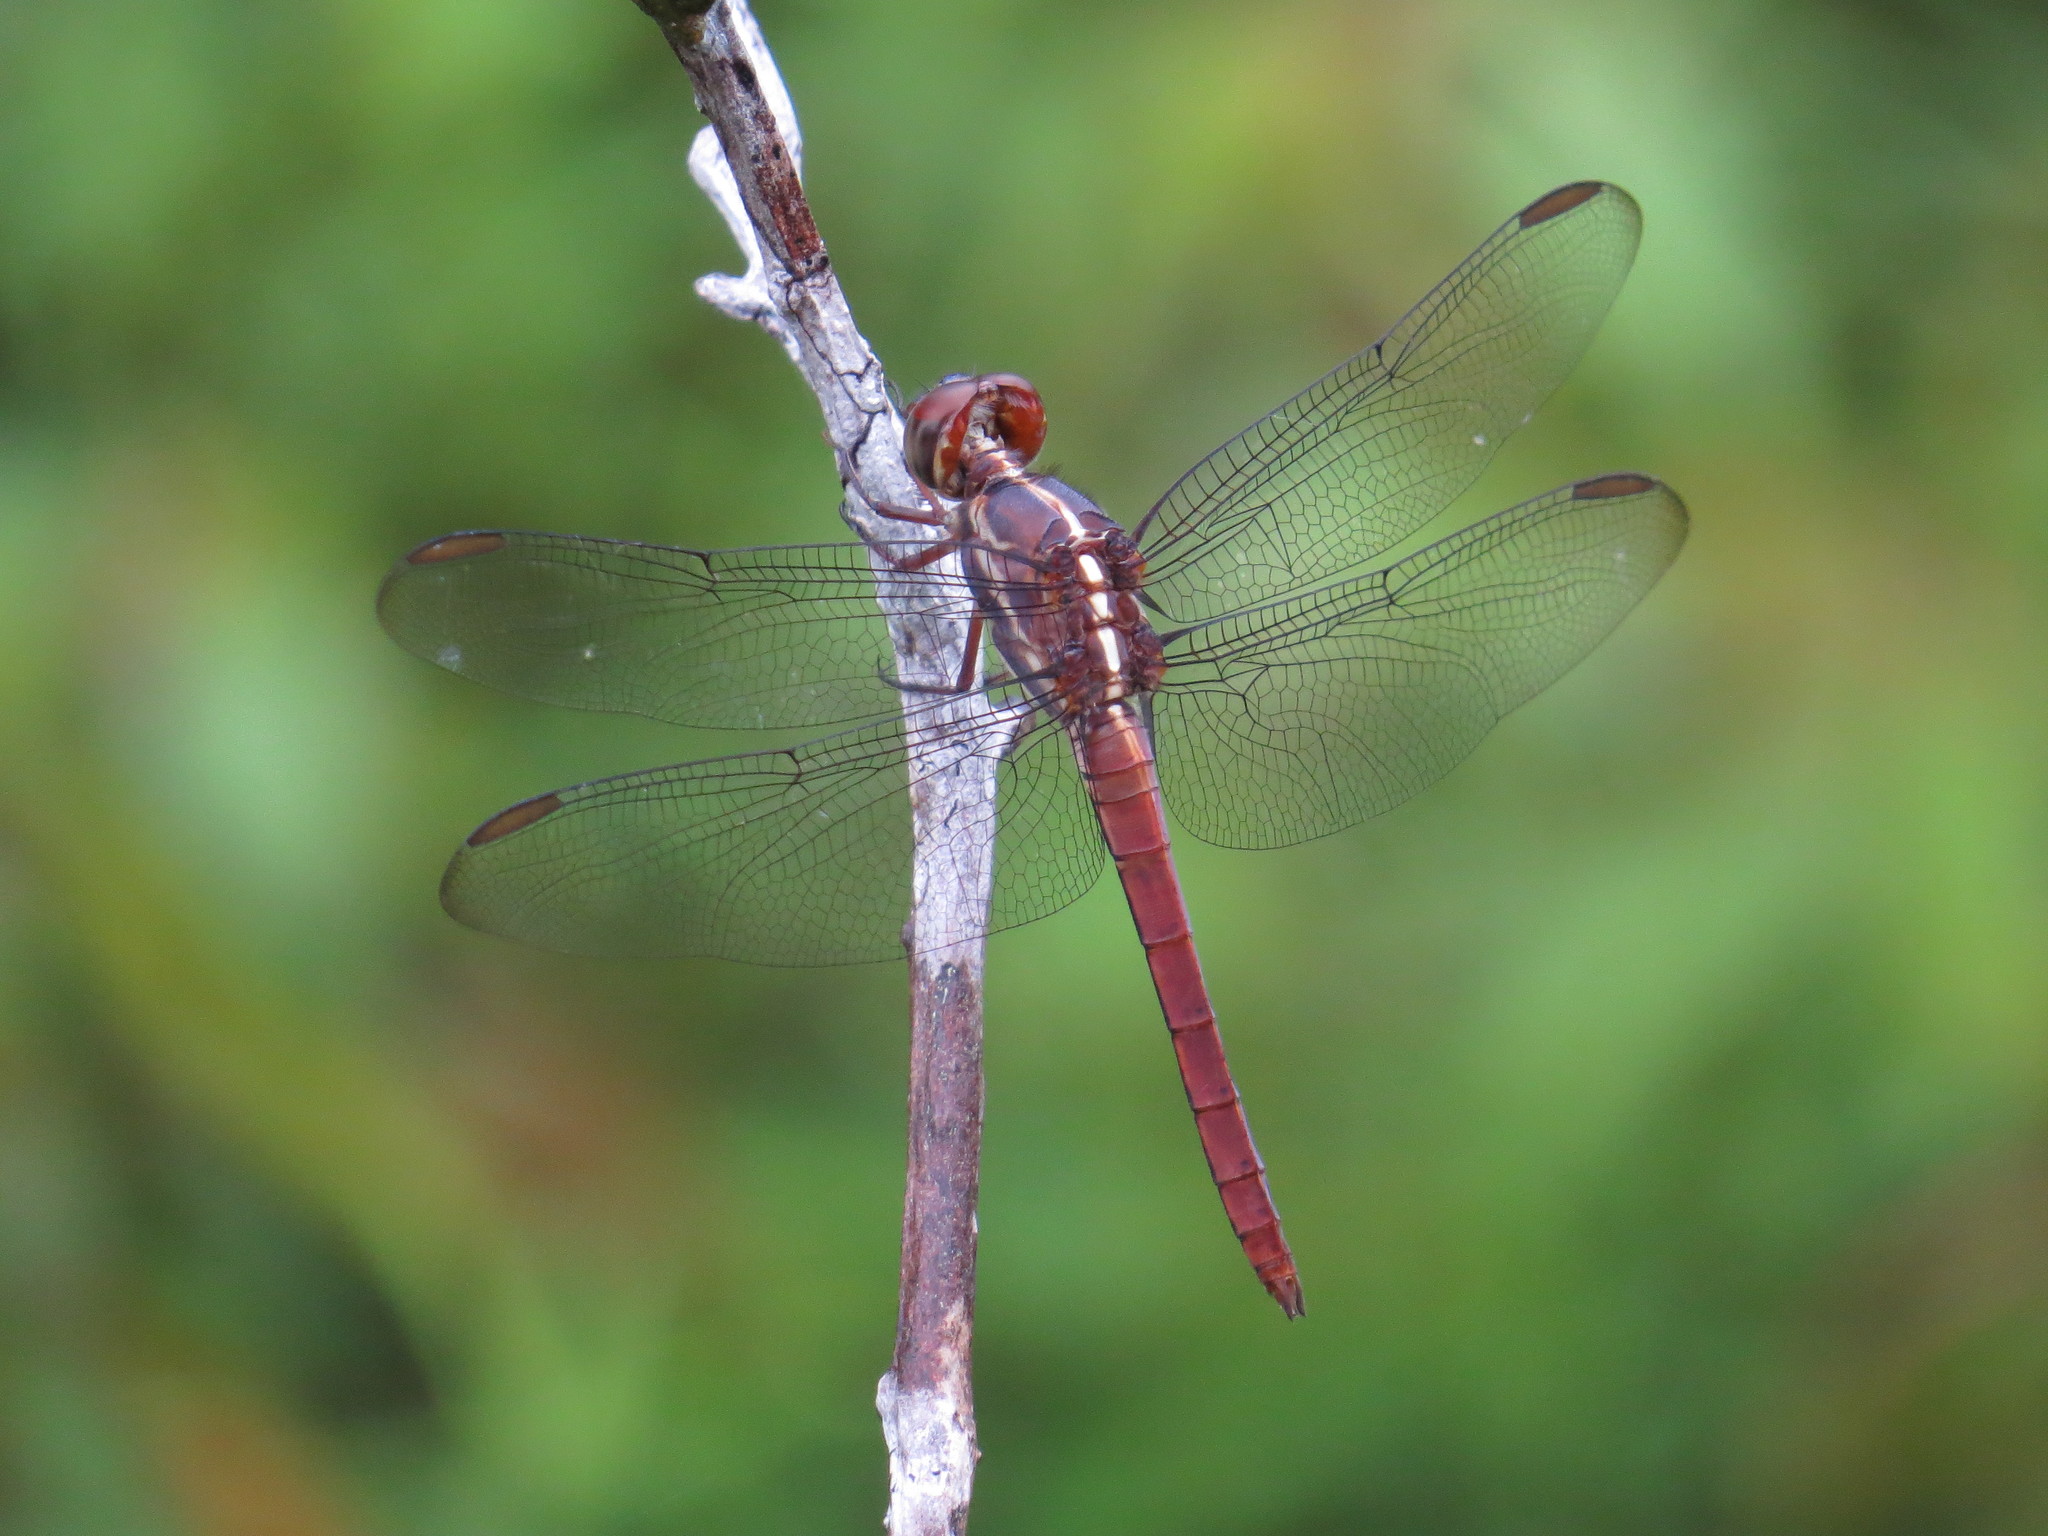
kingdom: Animalia
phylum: Arthropoda
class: Insecta
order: Odonata
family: Libellulidae
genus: Orthemis
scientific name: Orthemis aequilibris
